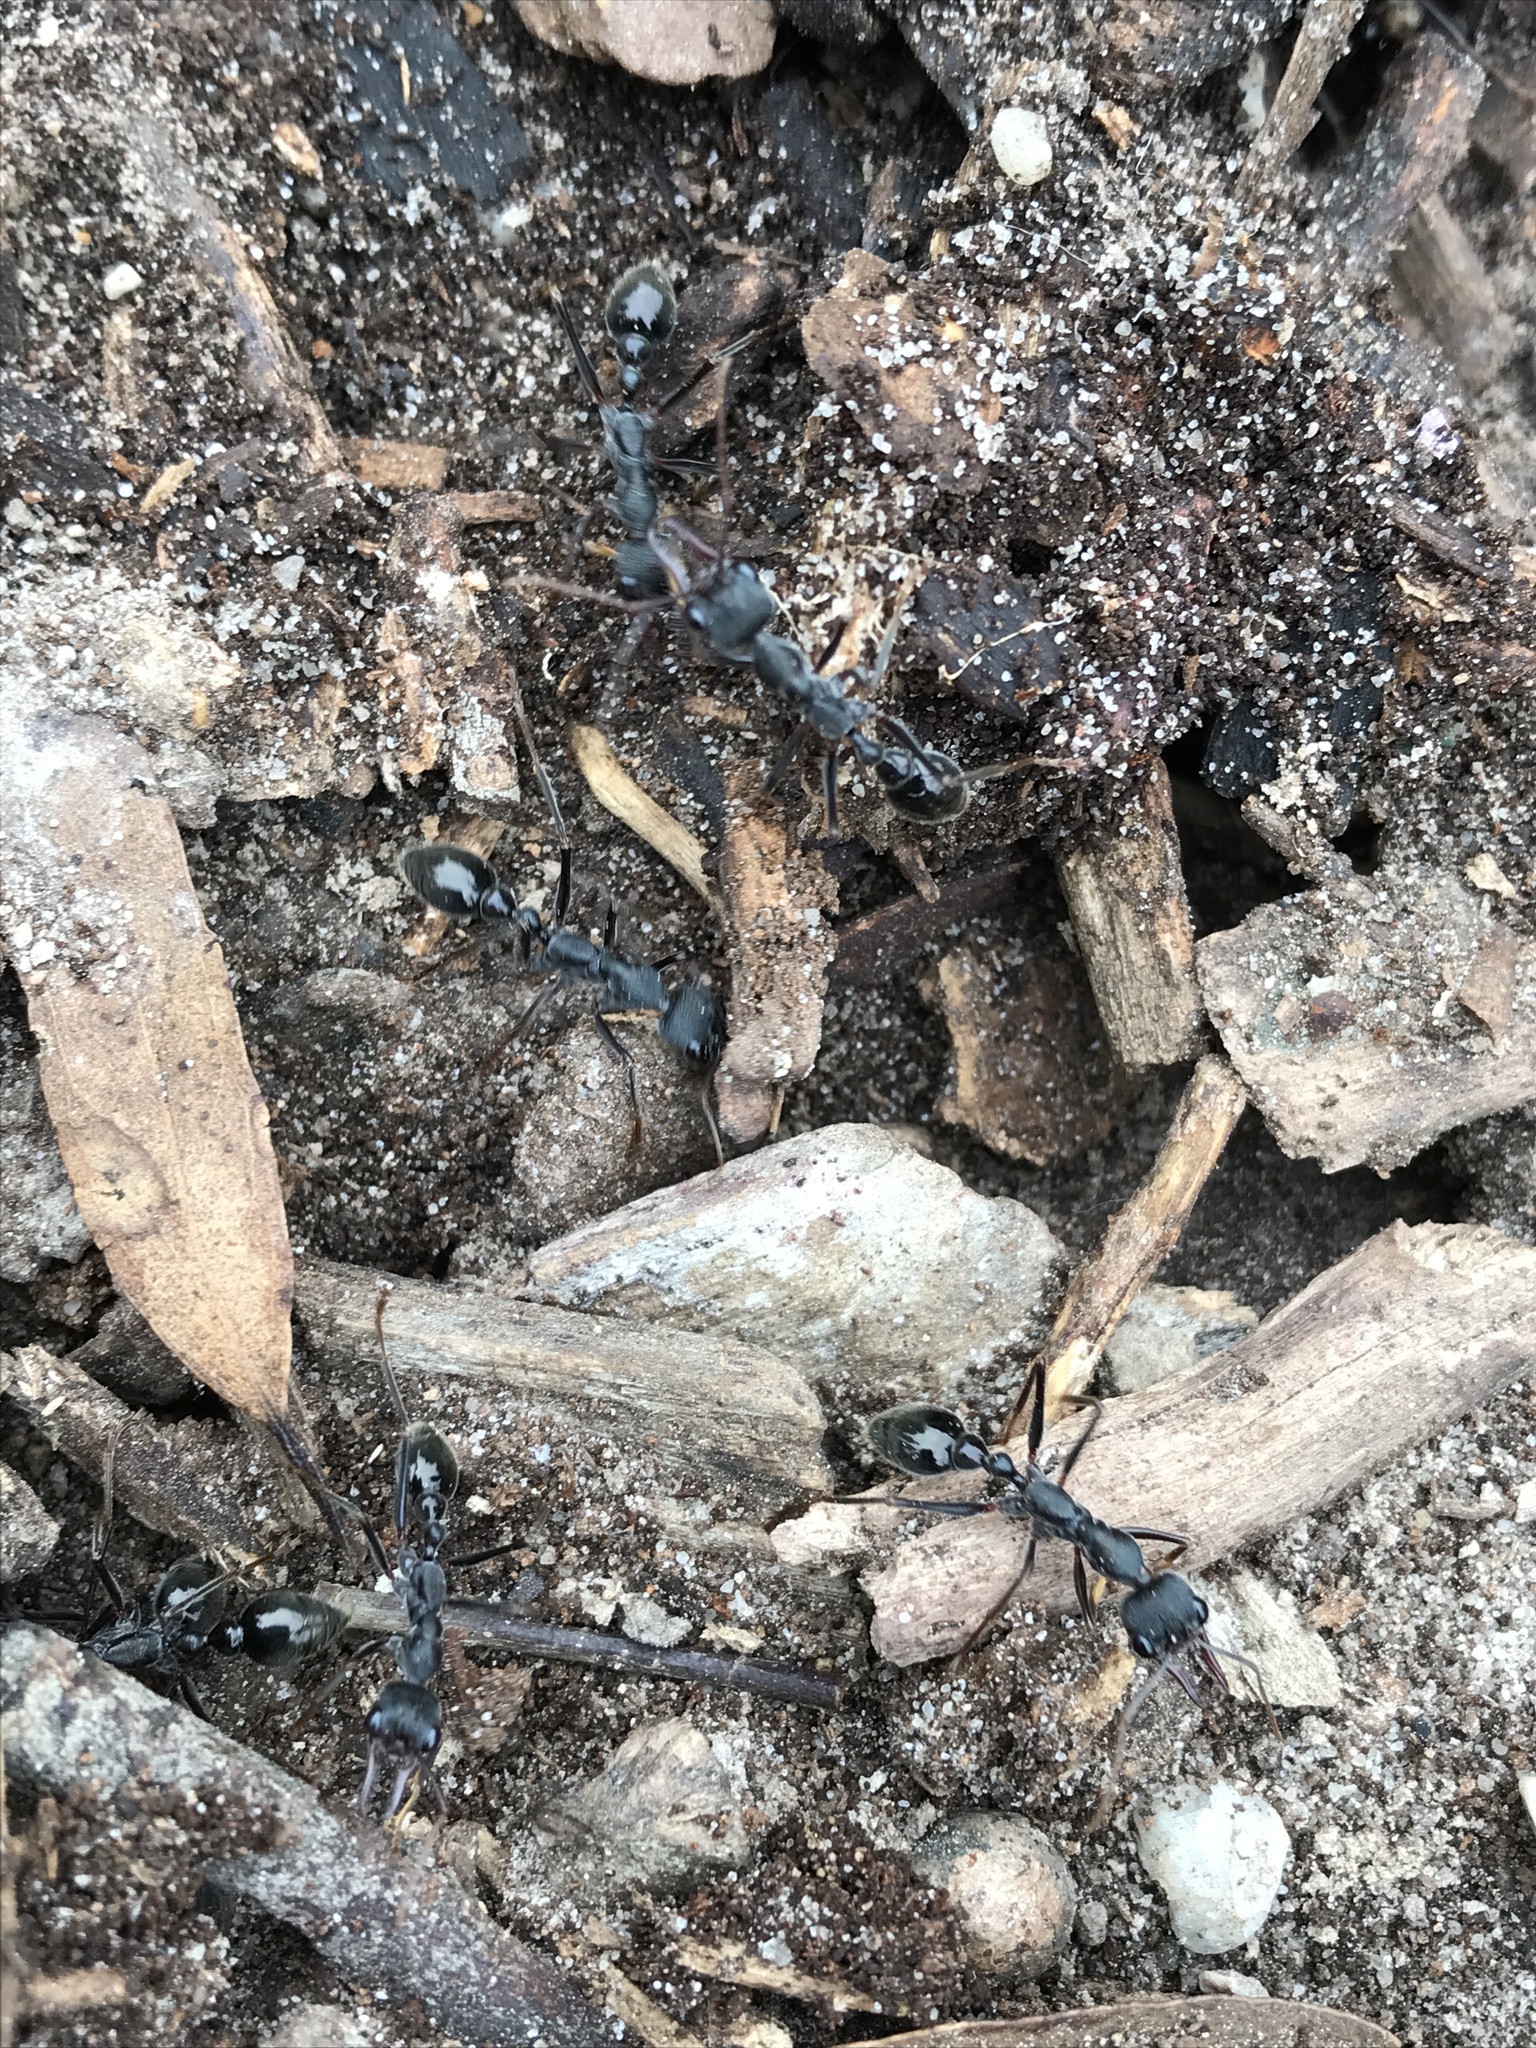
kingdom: Animalia
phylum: Arthropoda
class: Insecta
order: Hymenoptera
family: Formicidae
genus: Myrmecia
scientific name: Myrmecia pyriformis
